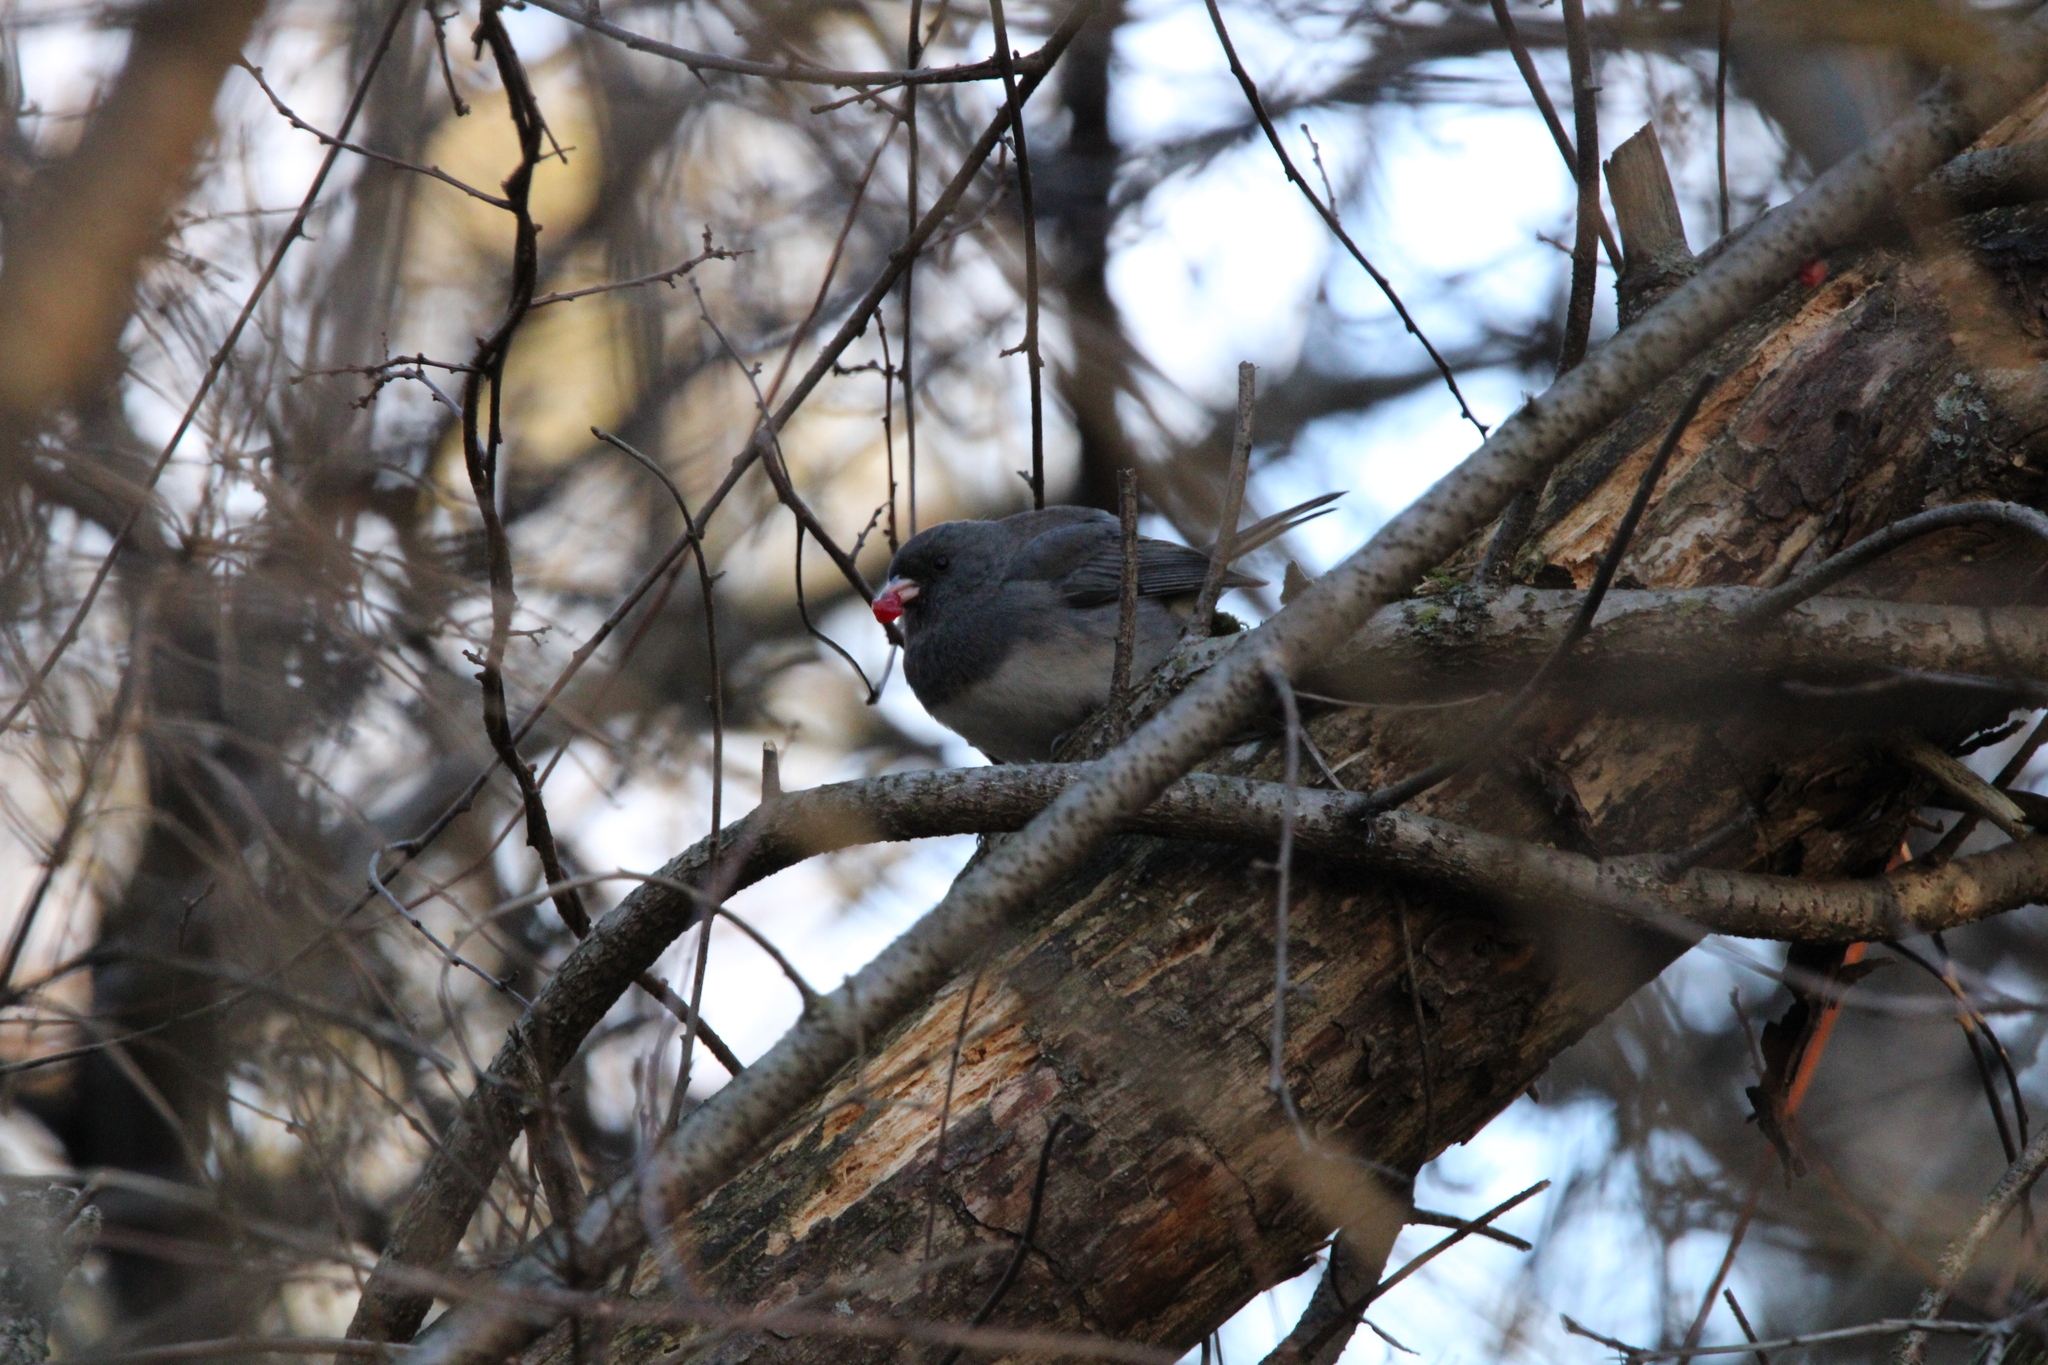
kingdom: Animalia
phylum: Chordata
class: Aves
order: Passeriformes
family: Passerellidae
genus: Junco
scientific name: Junco hyemalis
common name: Dark-eyed junco
